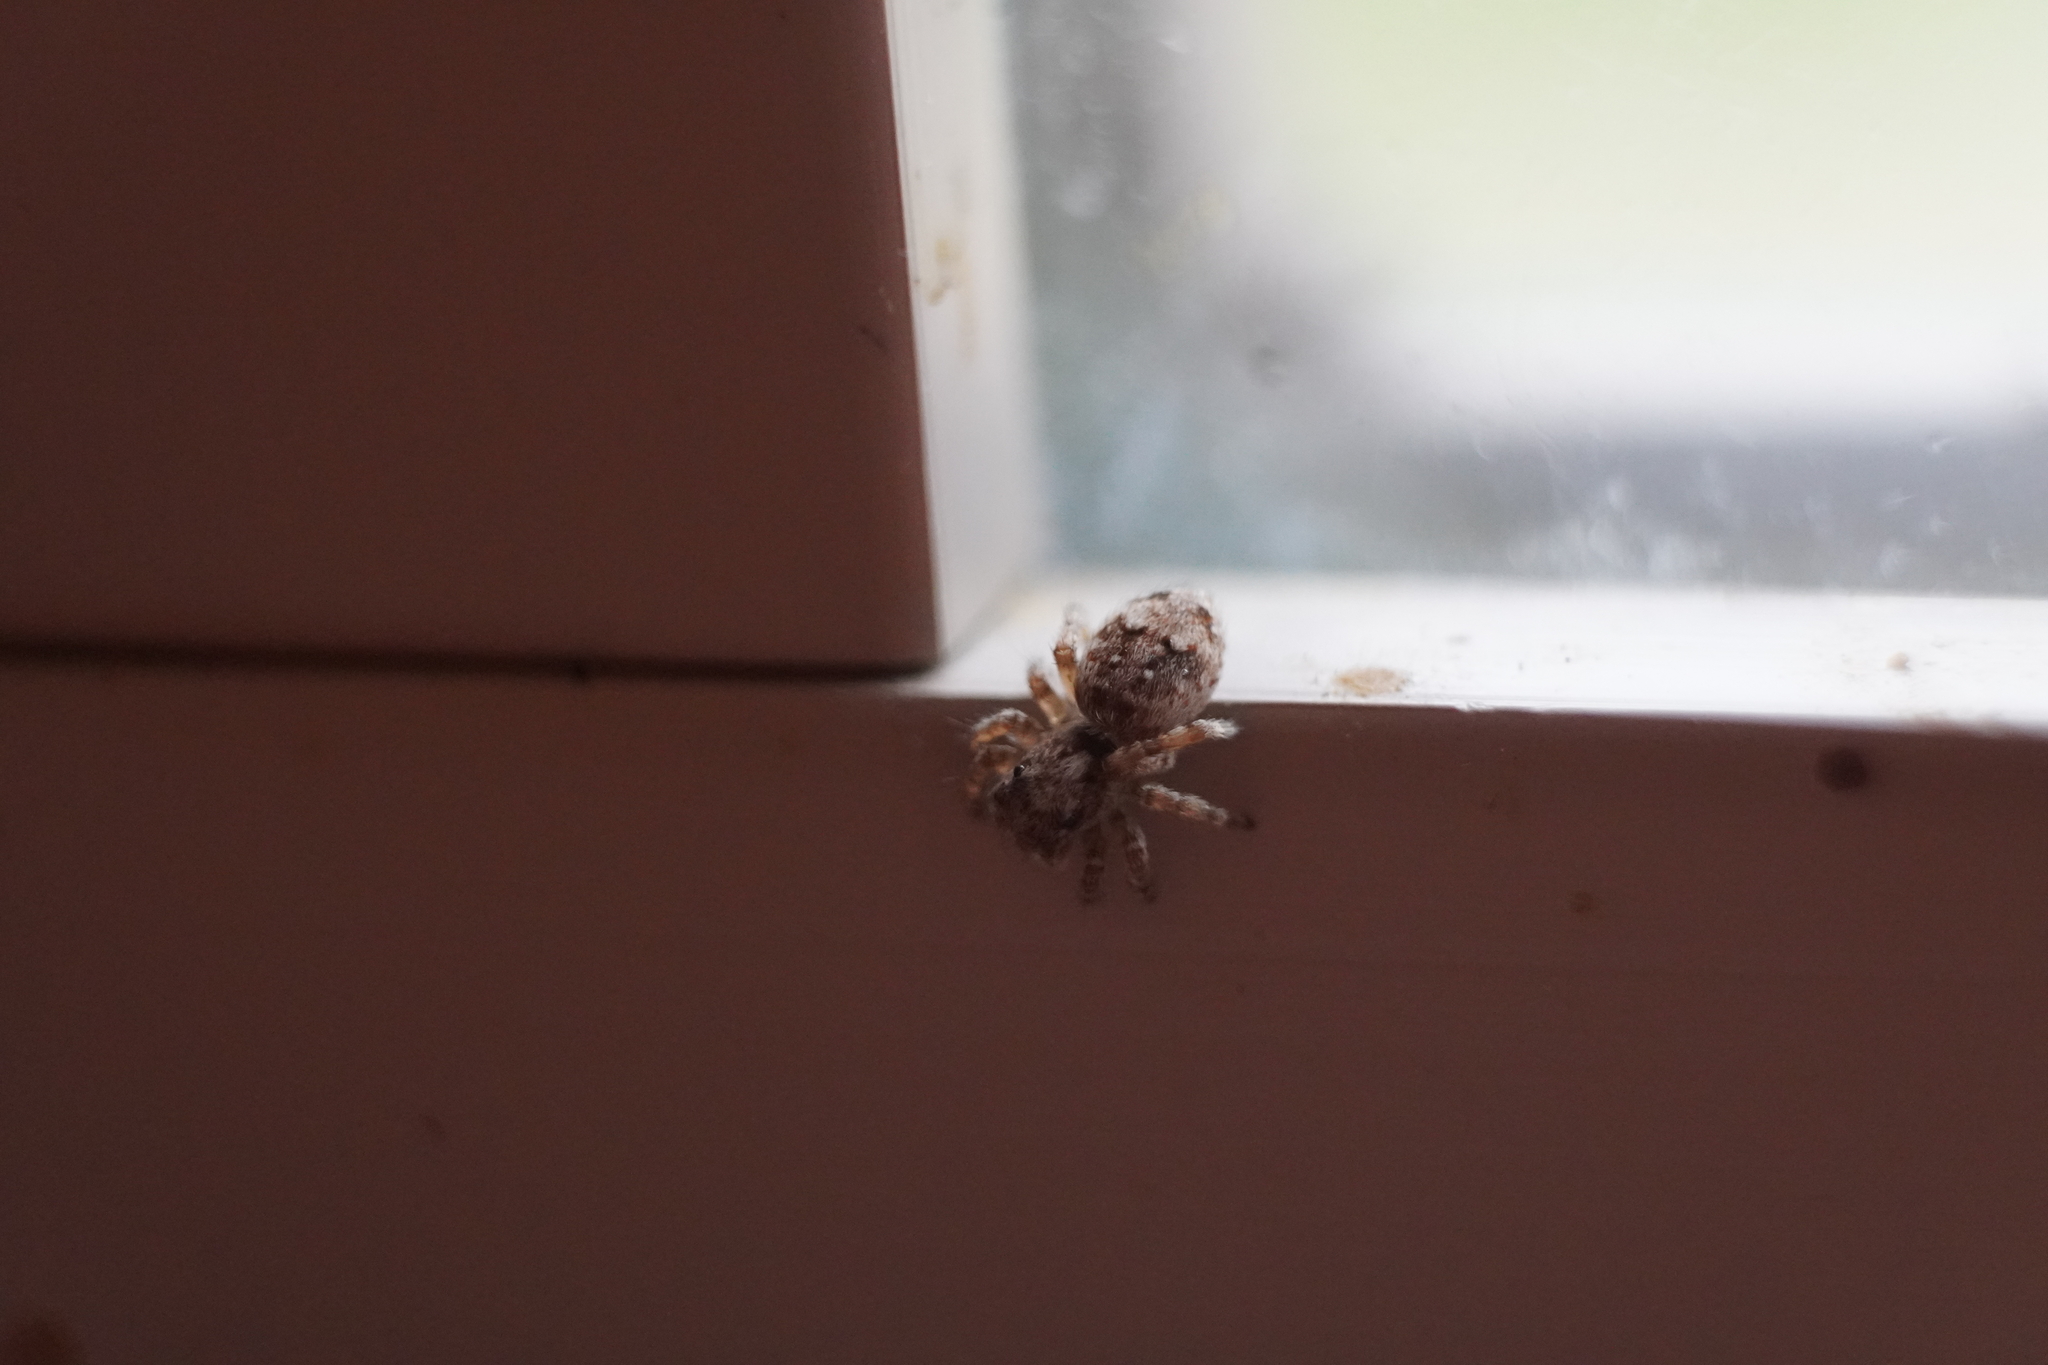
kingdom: Animalia
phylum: Arthropoda
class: Arachnida
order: Araneae
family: Salticidae
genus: Attulus
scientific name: Attulus fasciger
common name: Asiatic wall jumping spider
